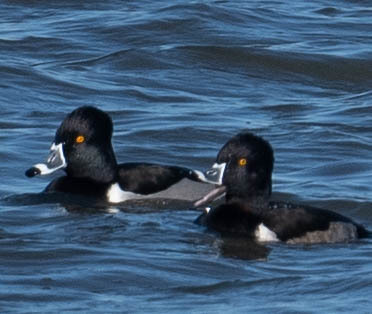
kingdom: Animalia
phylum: Chordata
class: Aves
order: Anseriformes
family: Anatidae
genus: Aythya
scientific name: Aythya collaris
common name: Ring-necked duck
